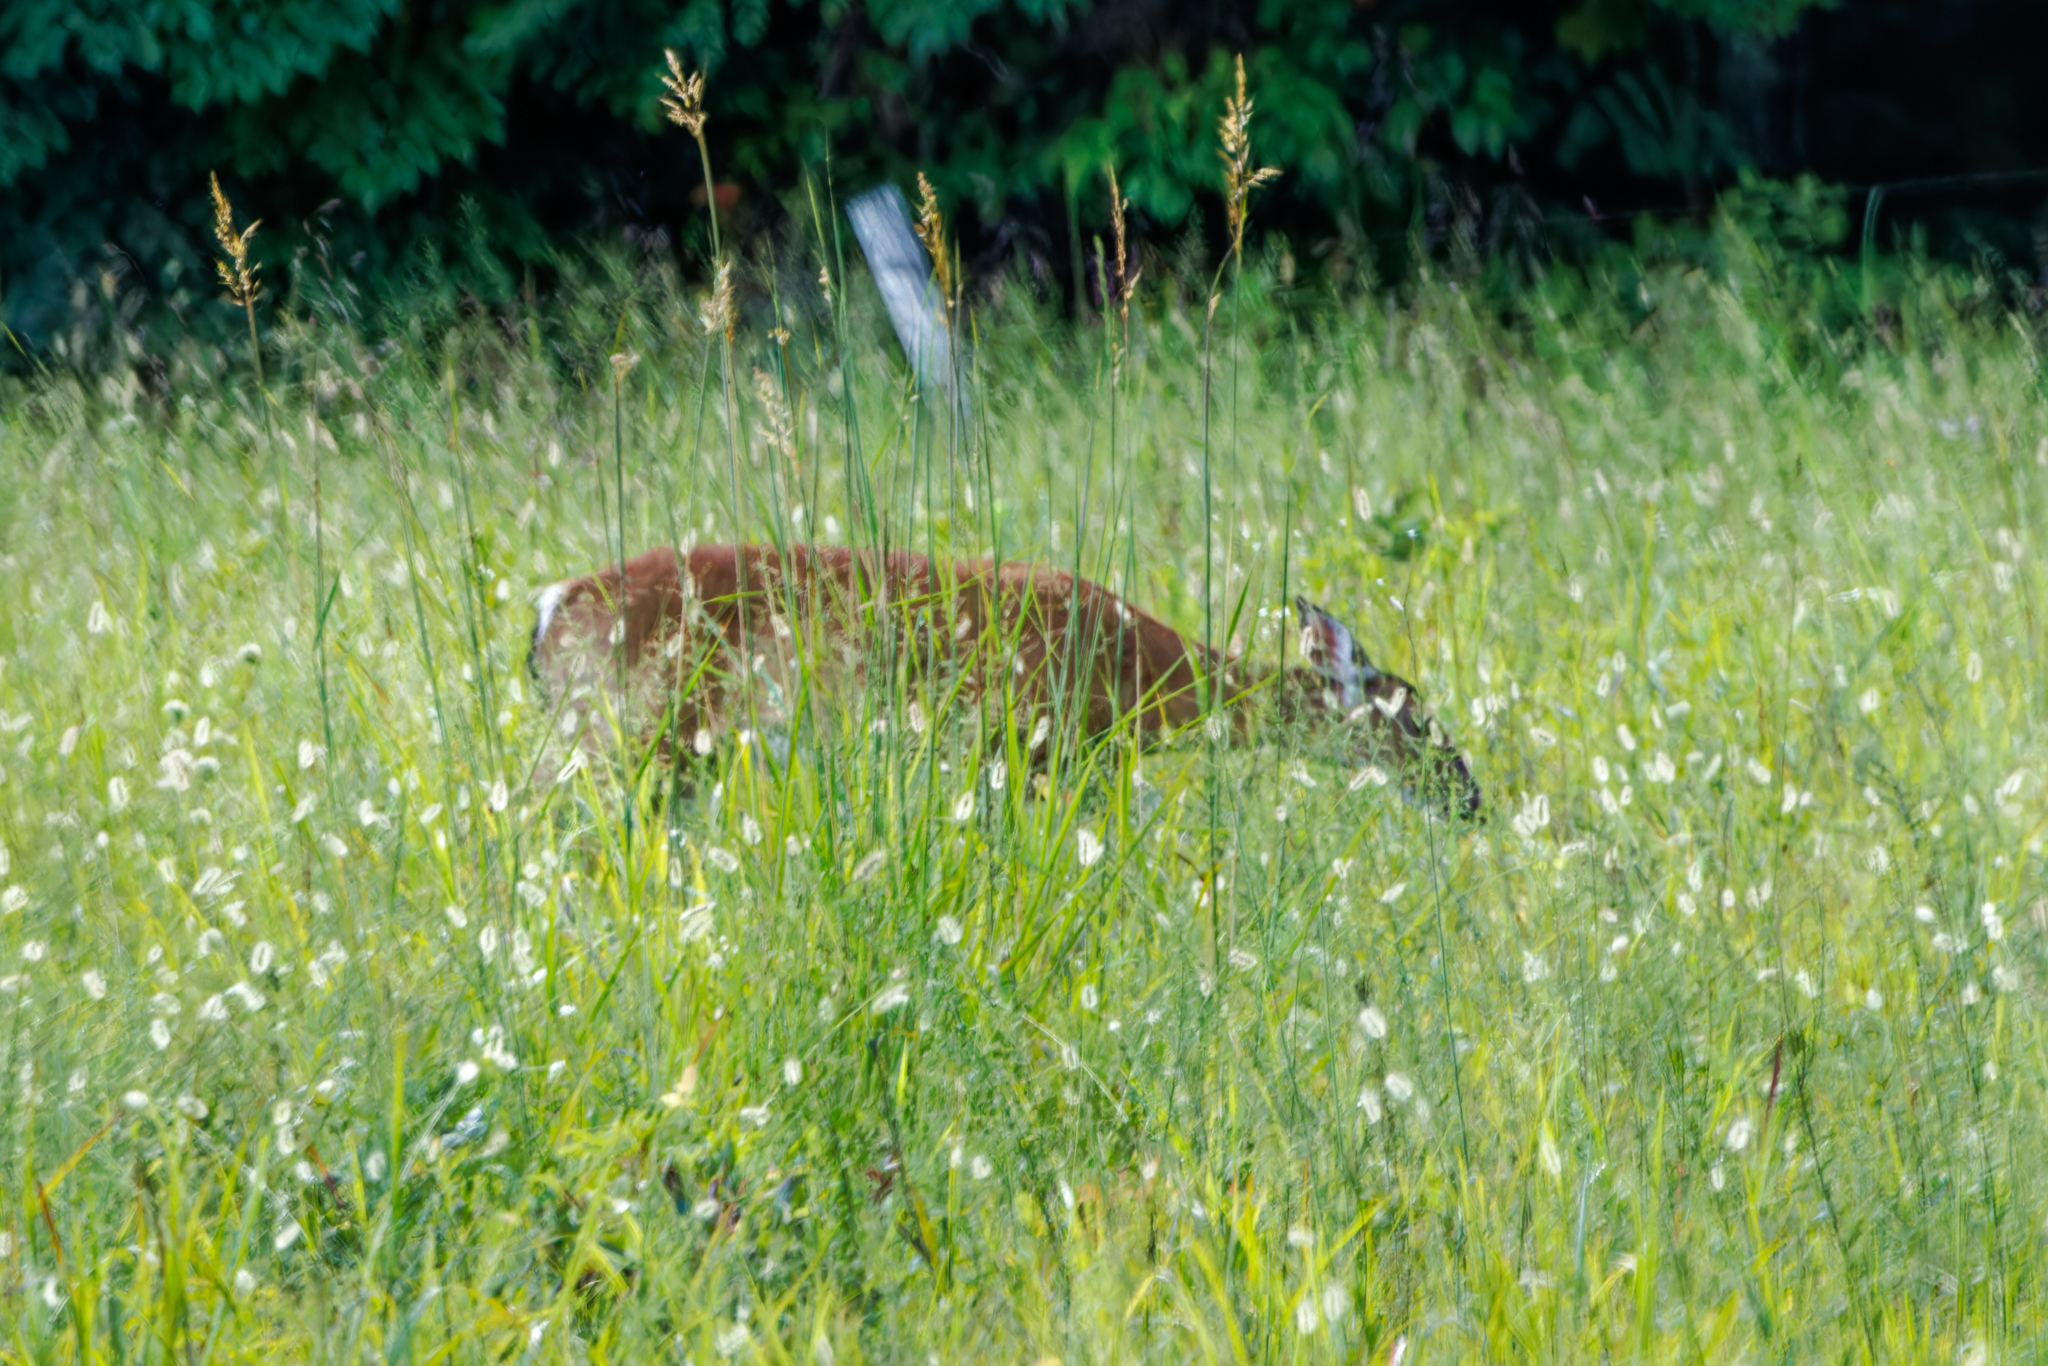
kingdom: Animalia
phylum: Chordata
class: Mammalia
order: Artiodactyla
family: Cervidae
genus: Odocoileus
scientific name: Odocoileus virginianus
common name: White-tailed deer
